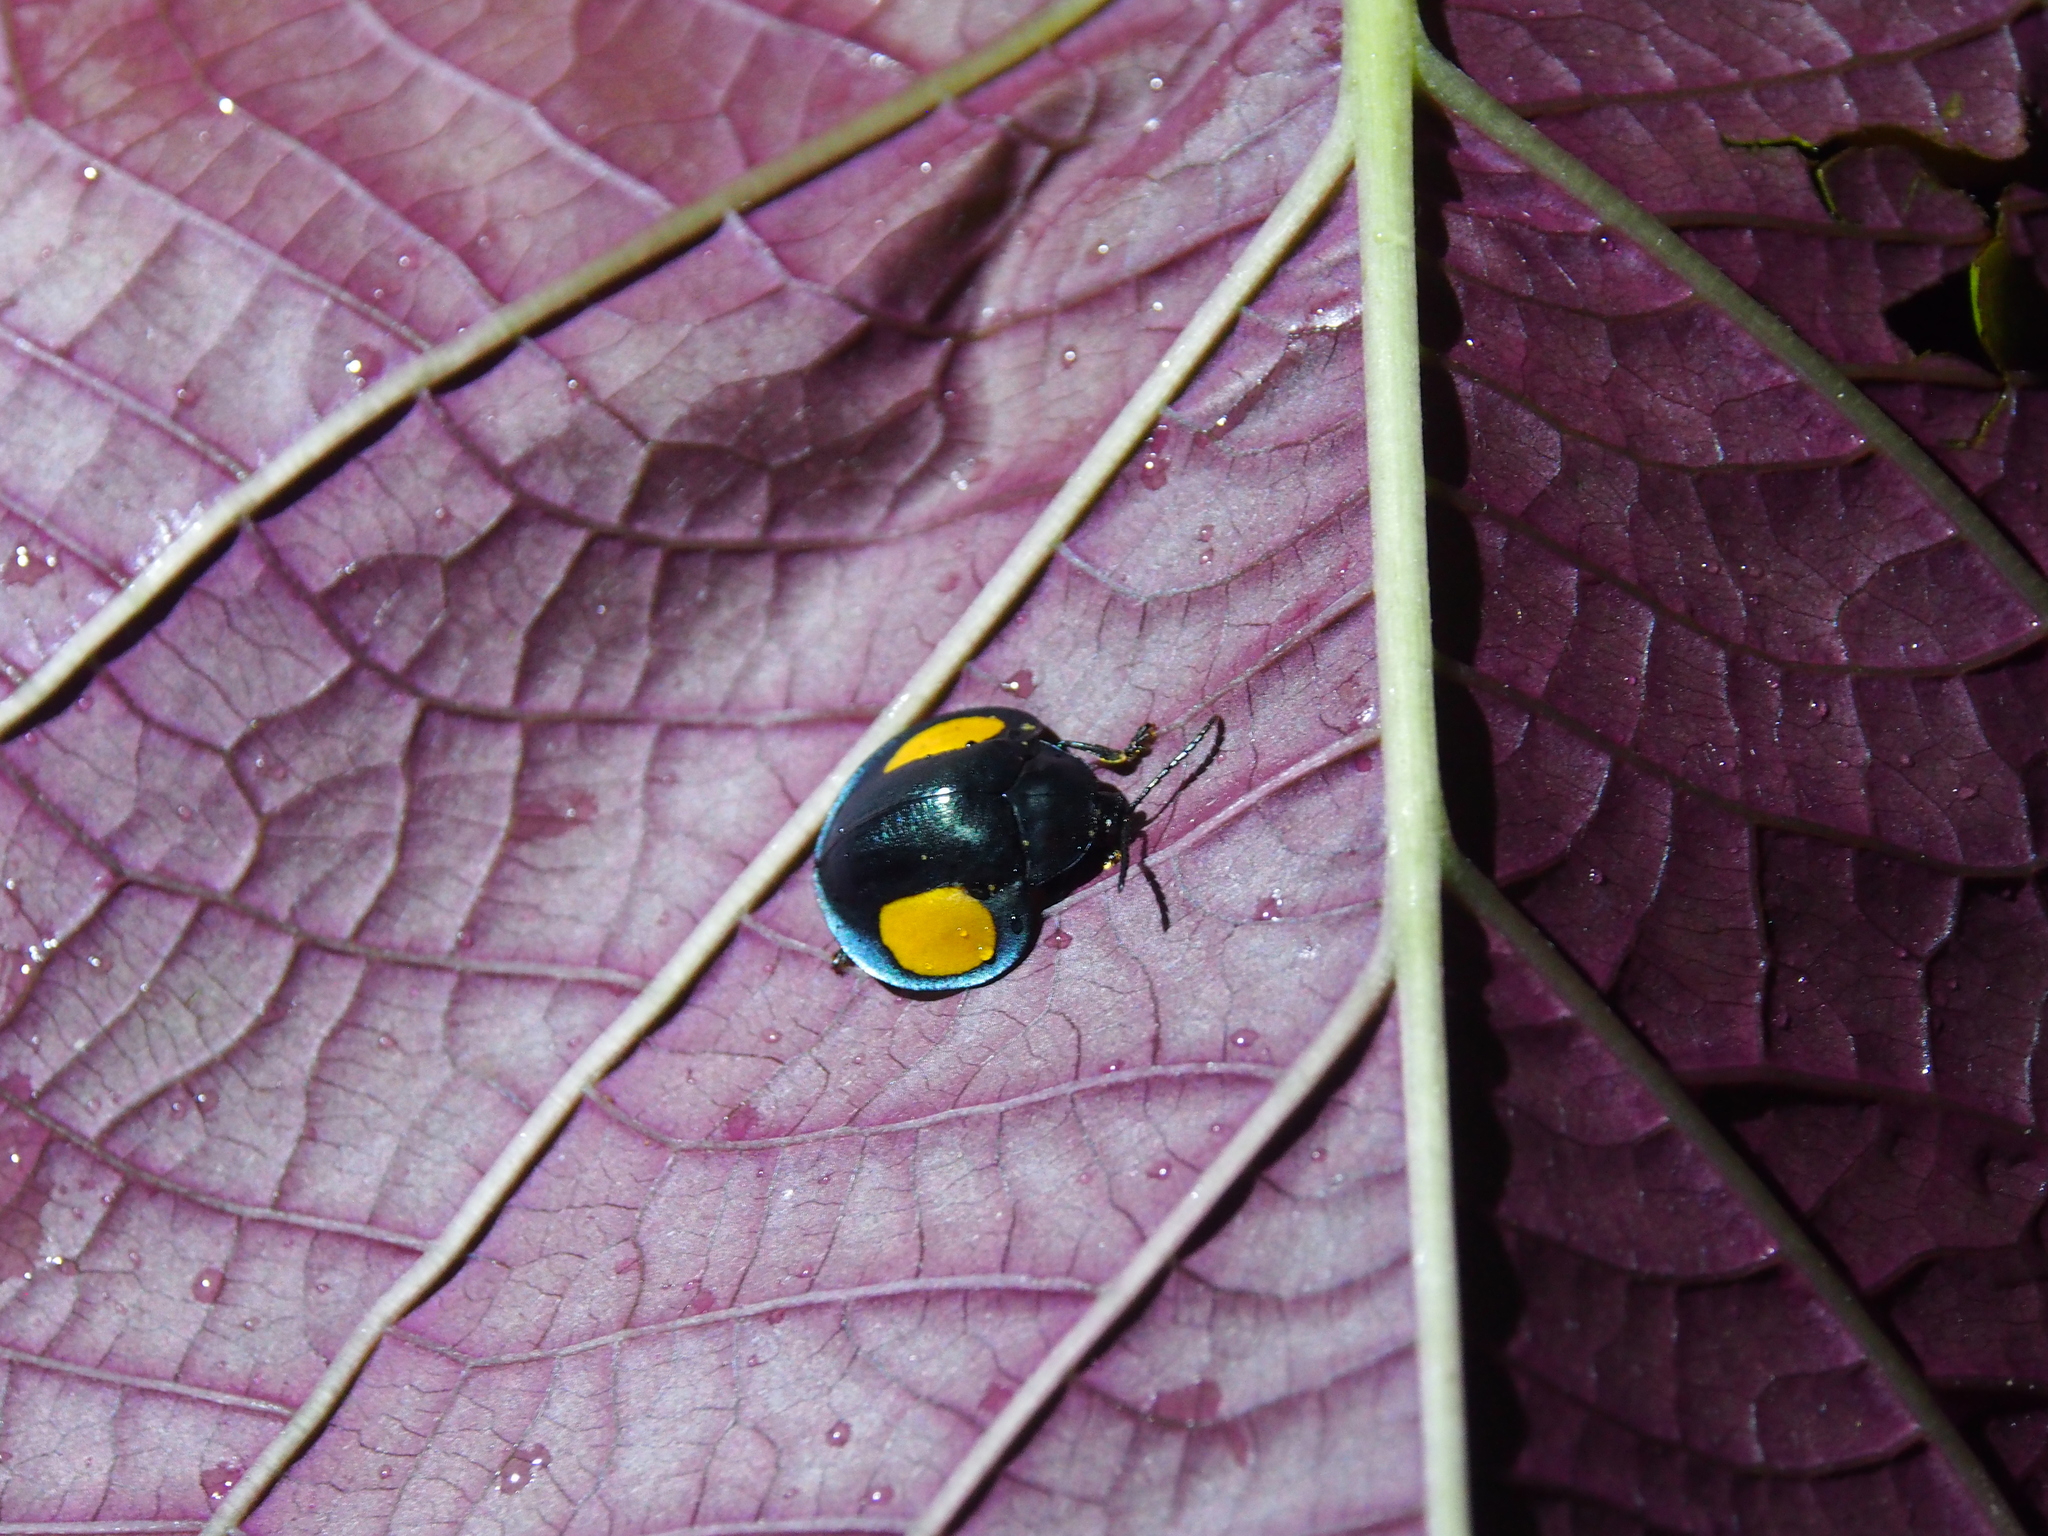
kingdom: Animalia
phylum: Arthropoda
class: Insecta
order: Coleoptera
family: Chrysomelidae
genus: Omaspides
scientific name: Omaspides convexicollis
